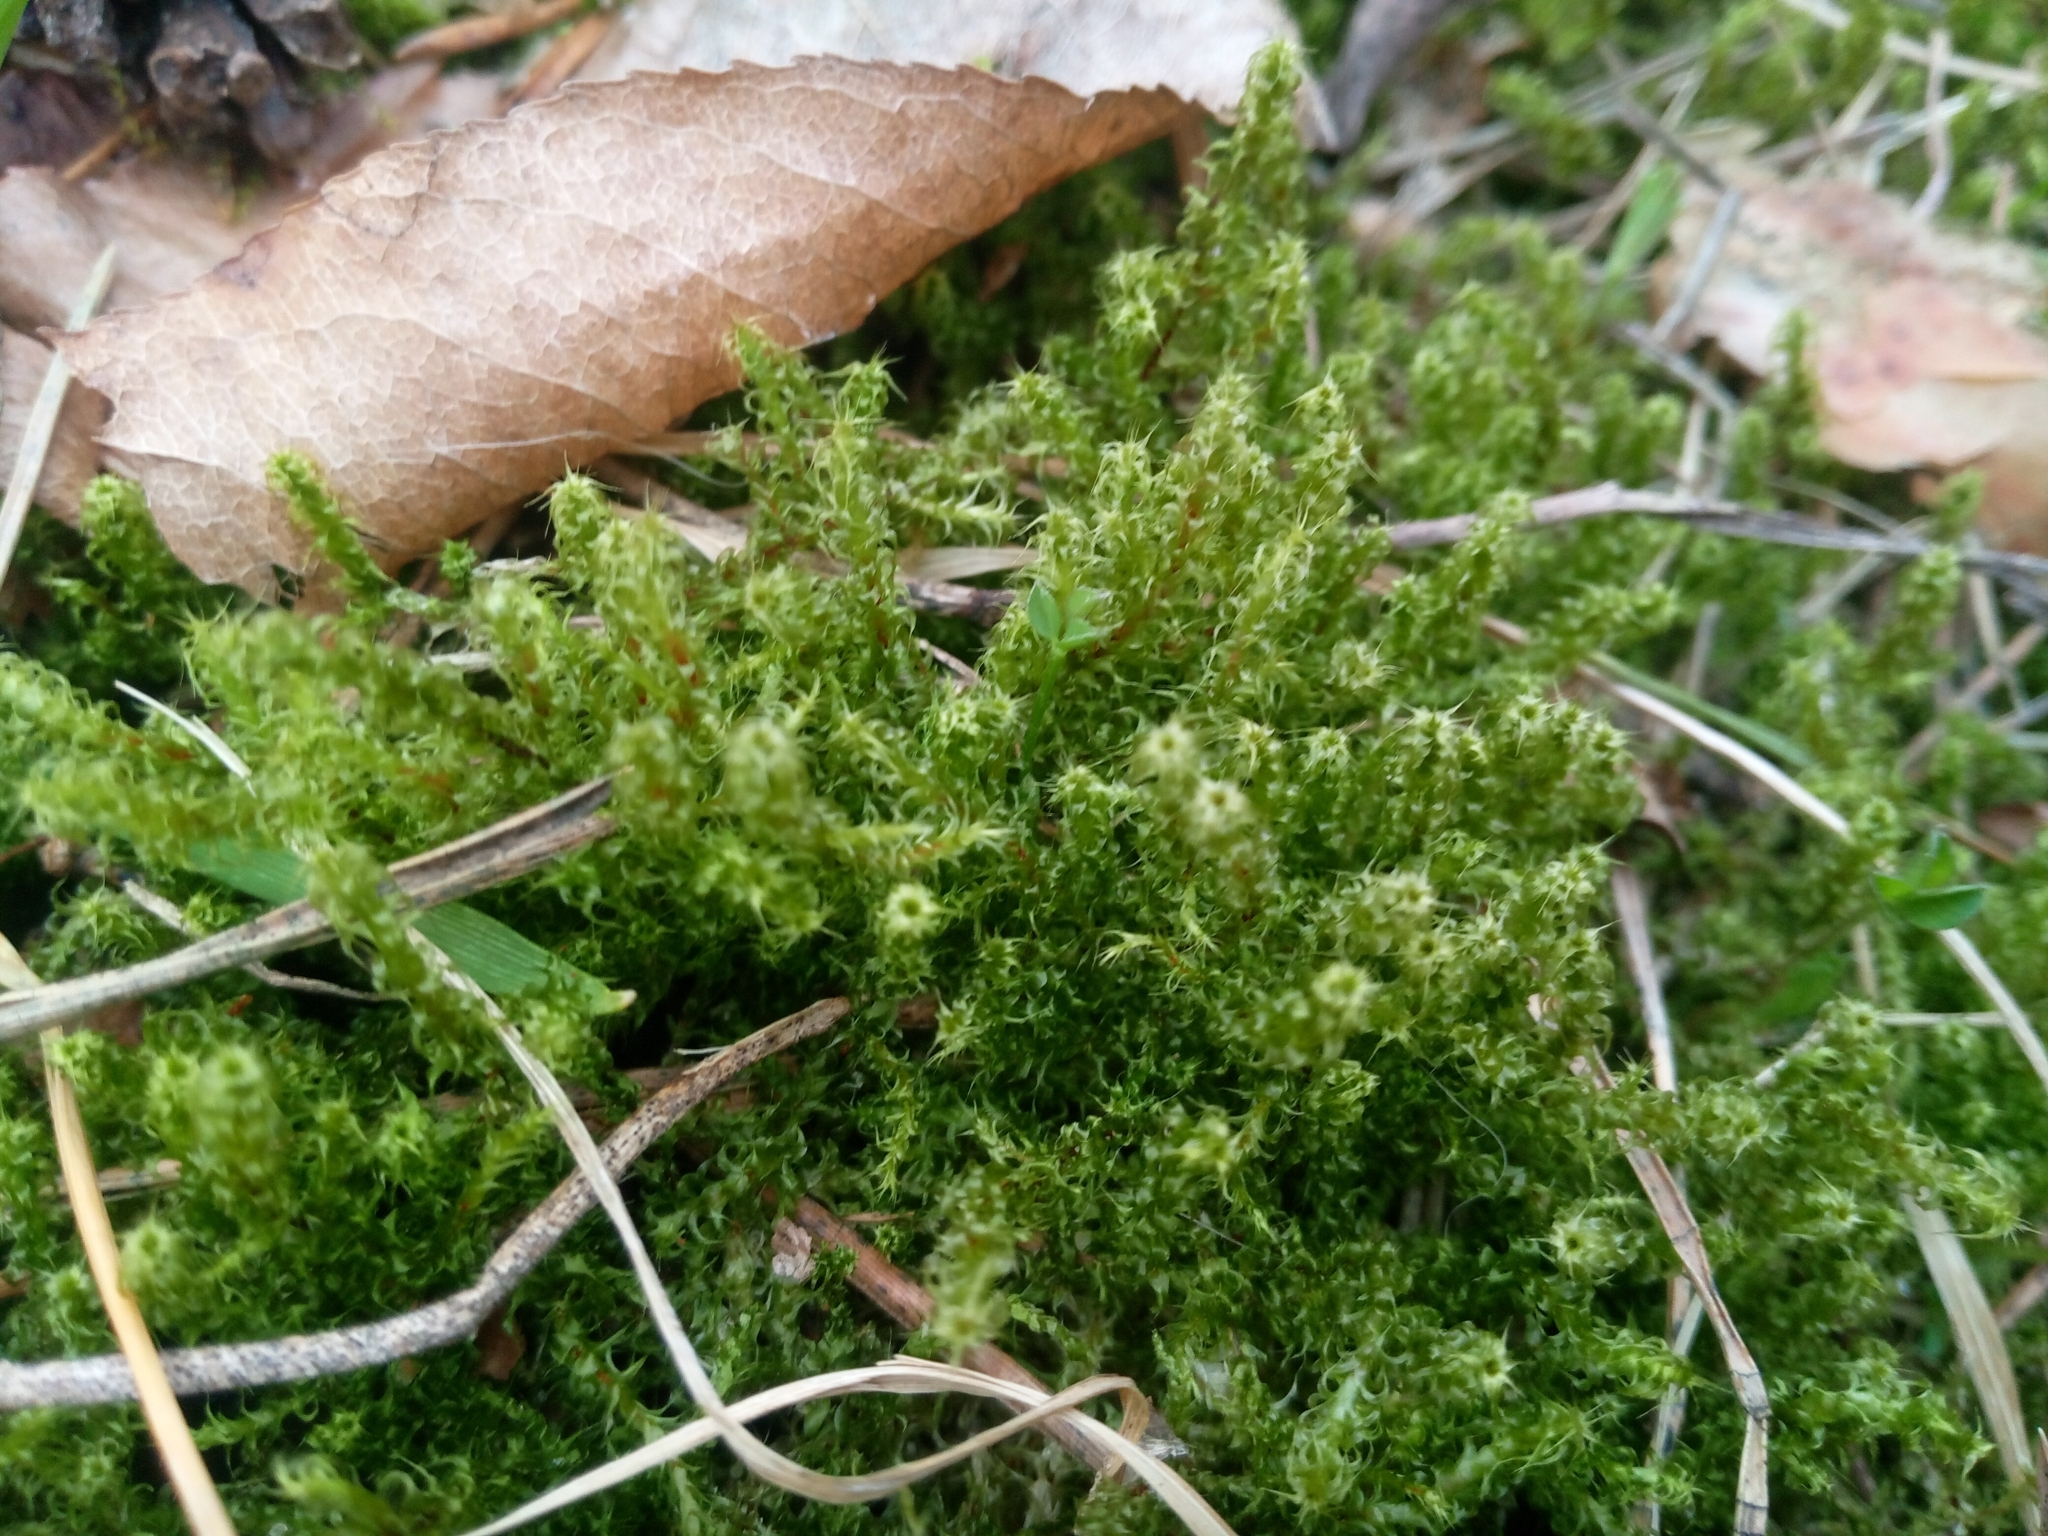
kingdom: Plantae
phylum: Bryophyta
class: Bryopsida
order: Hypnales
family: Hylocomiaceae
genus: Rhytidiadelphus
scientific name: Rhytidiadelphus squarrosus
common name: Springy turf-moss
